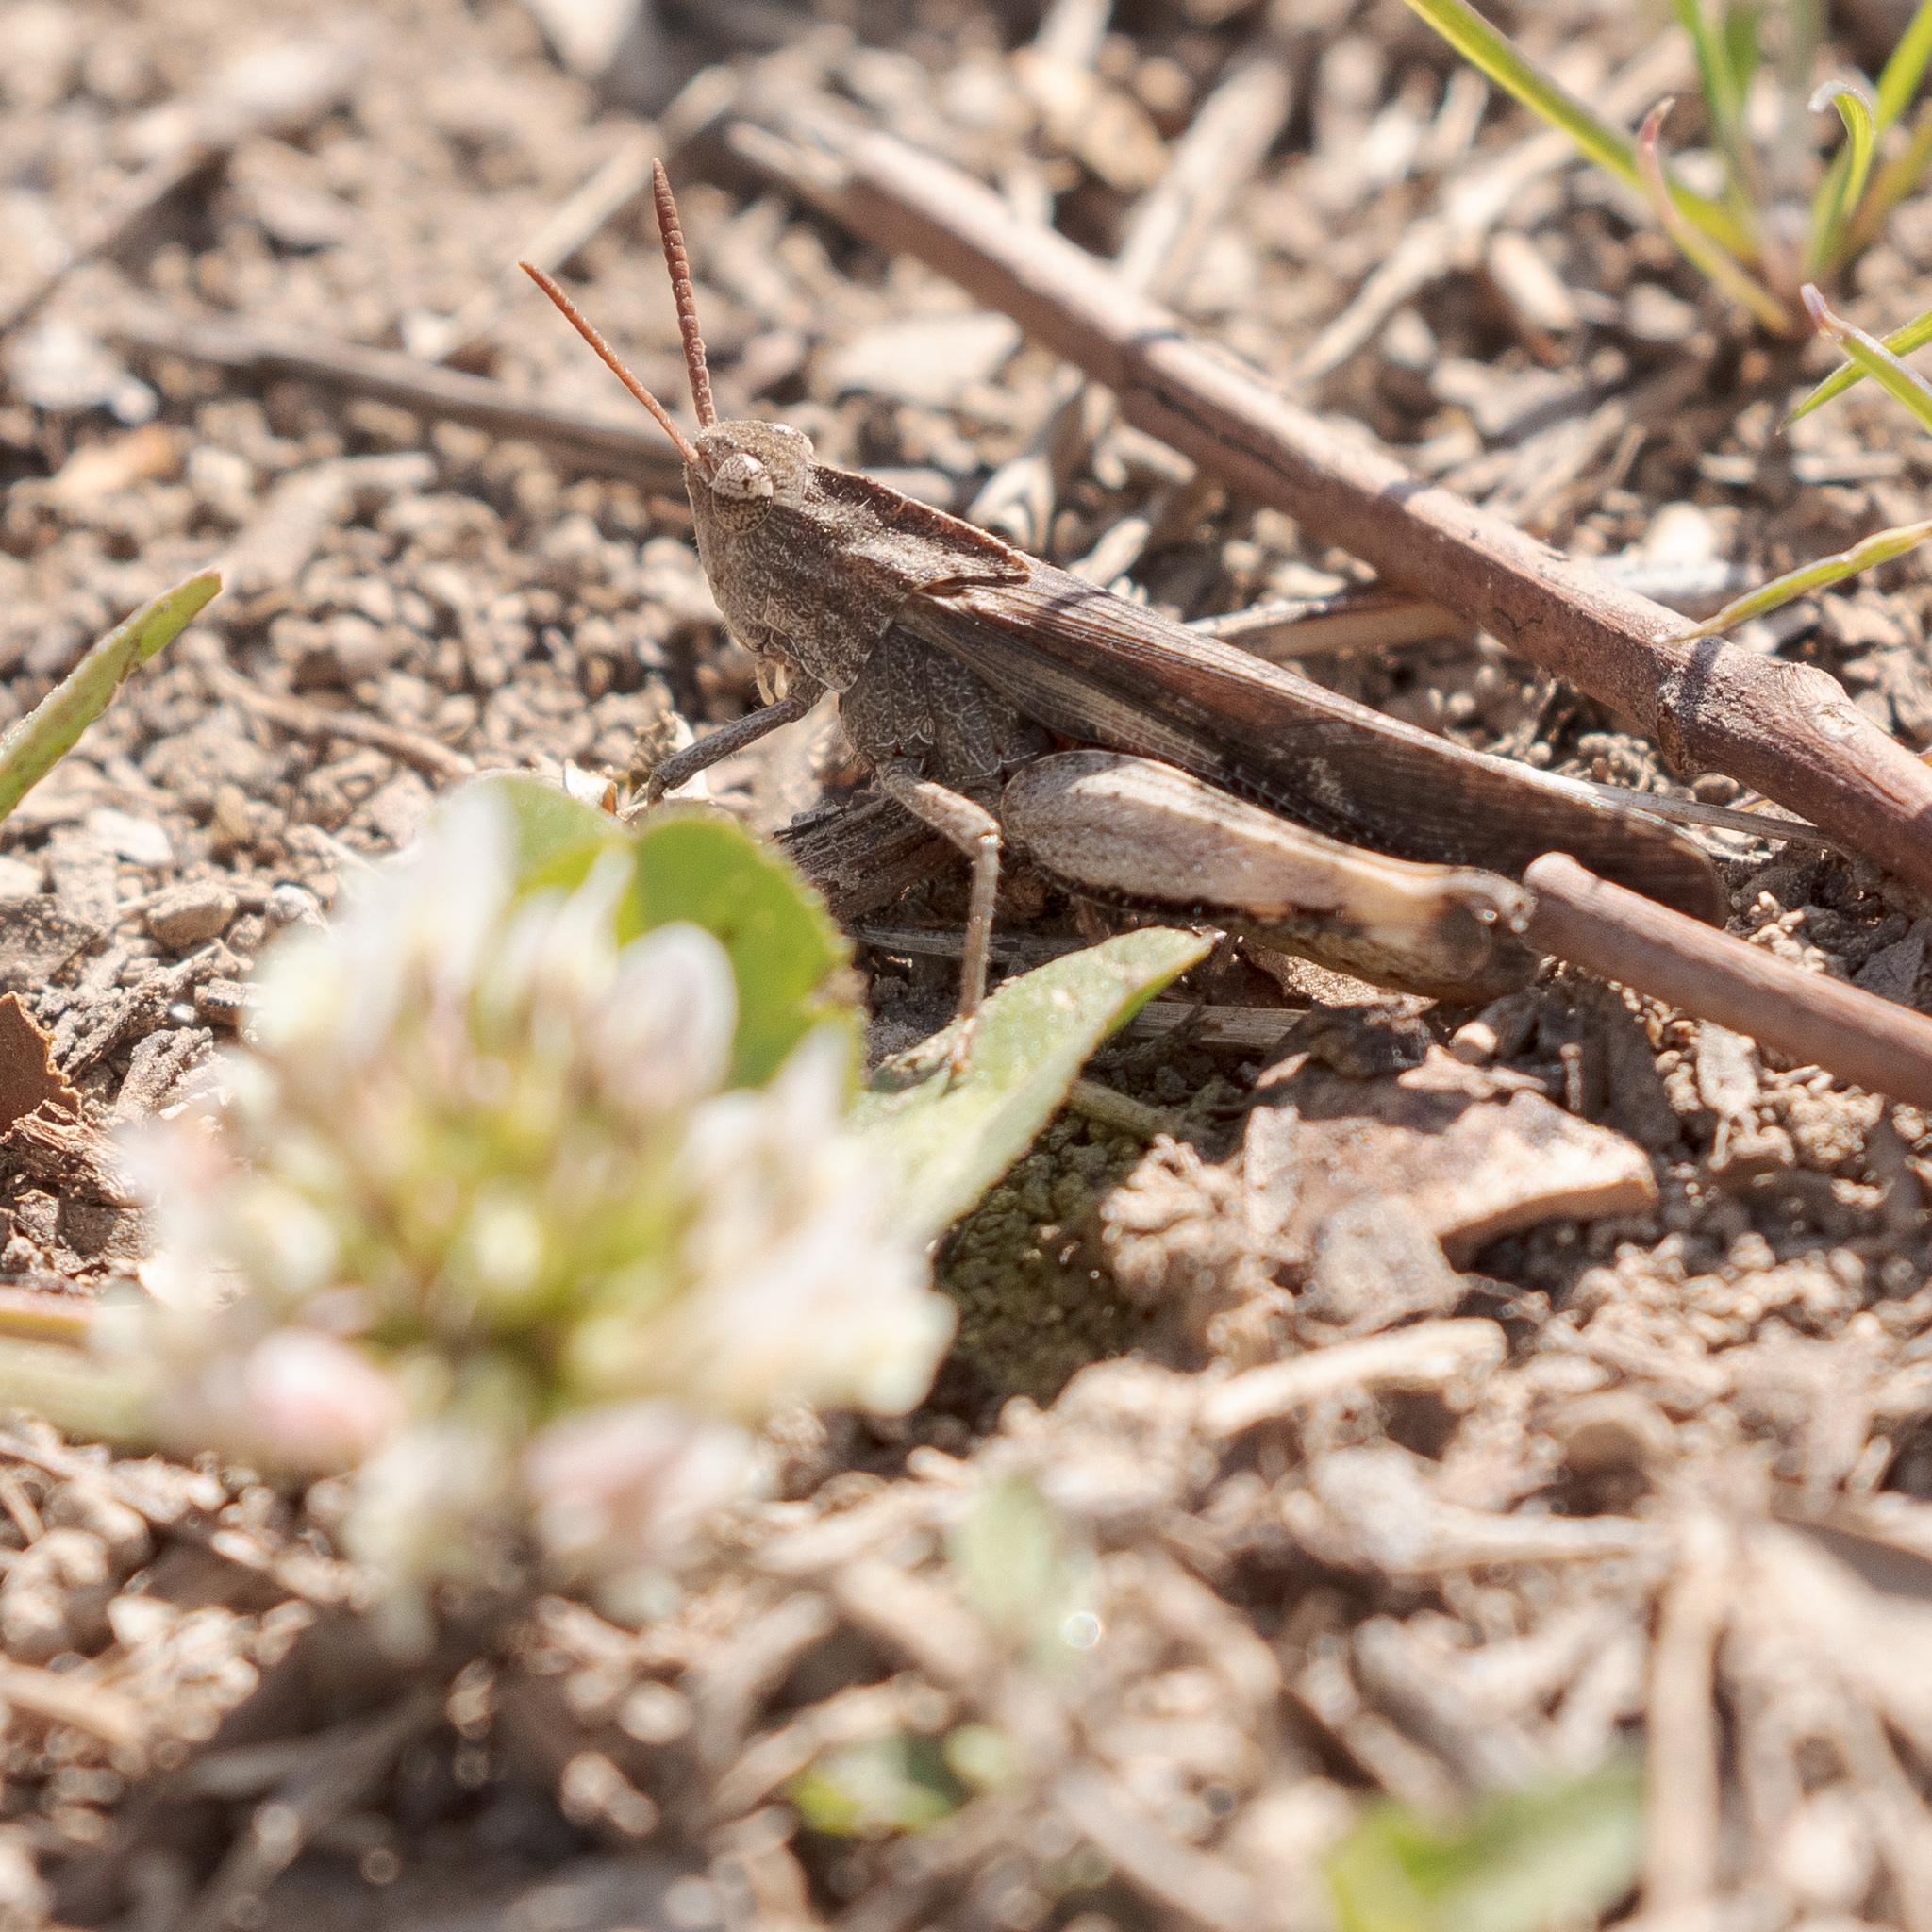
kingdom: Animalia
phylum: Arthropoda
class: Insecta
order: Orthoptera
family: Acrididae
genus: Chortophaga
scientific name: Chortophaga viridifasciata
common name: Green-striped grasshopper
